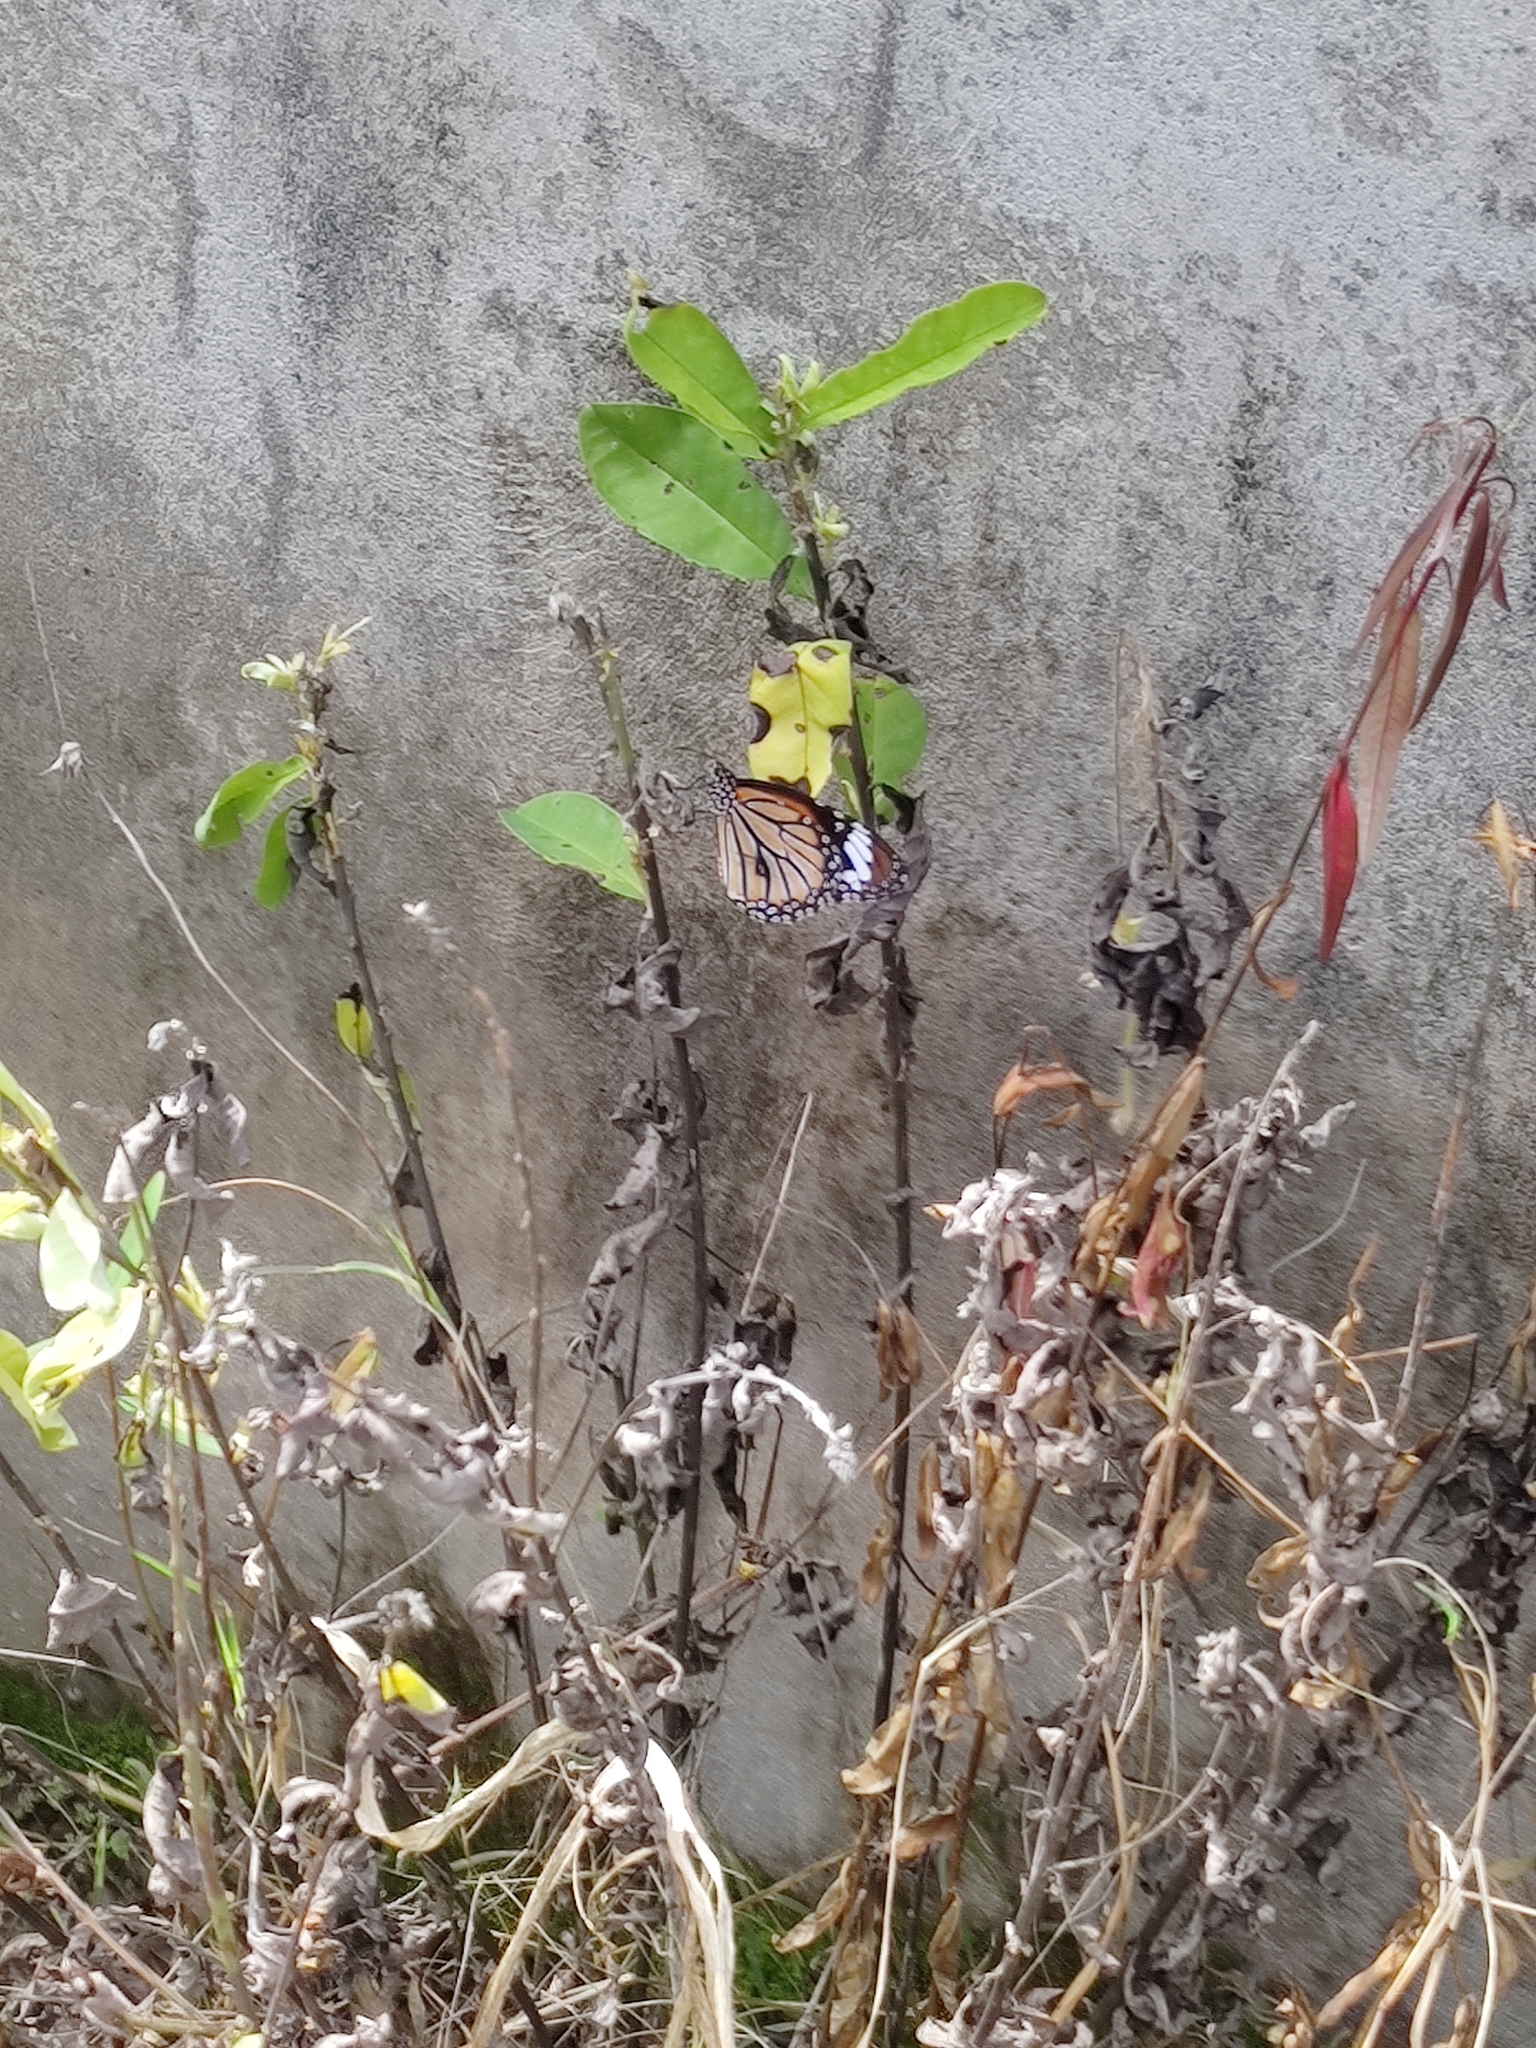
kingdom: Animalia
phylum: Arthropoda
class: Insecta
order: Lepidoptera
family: Nymphalidae
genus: Danaus
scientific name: Danaus genutia
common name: Common tiger butterfly
